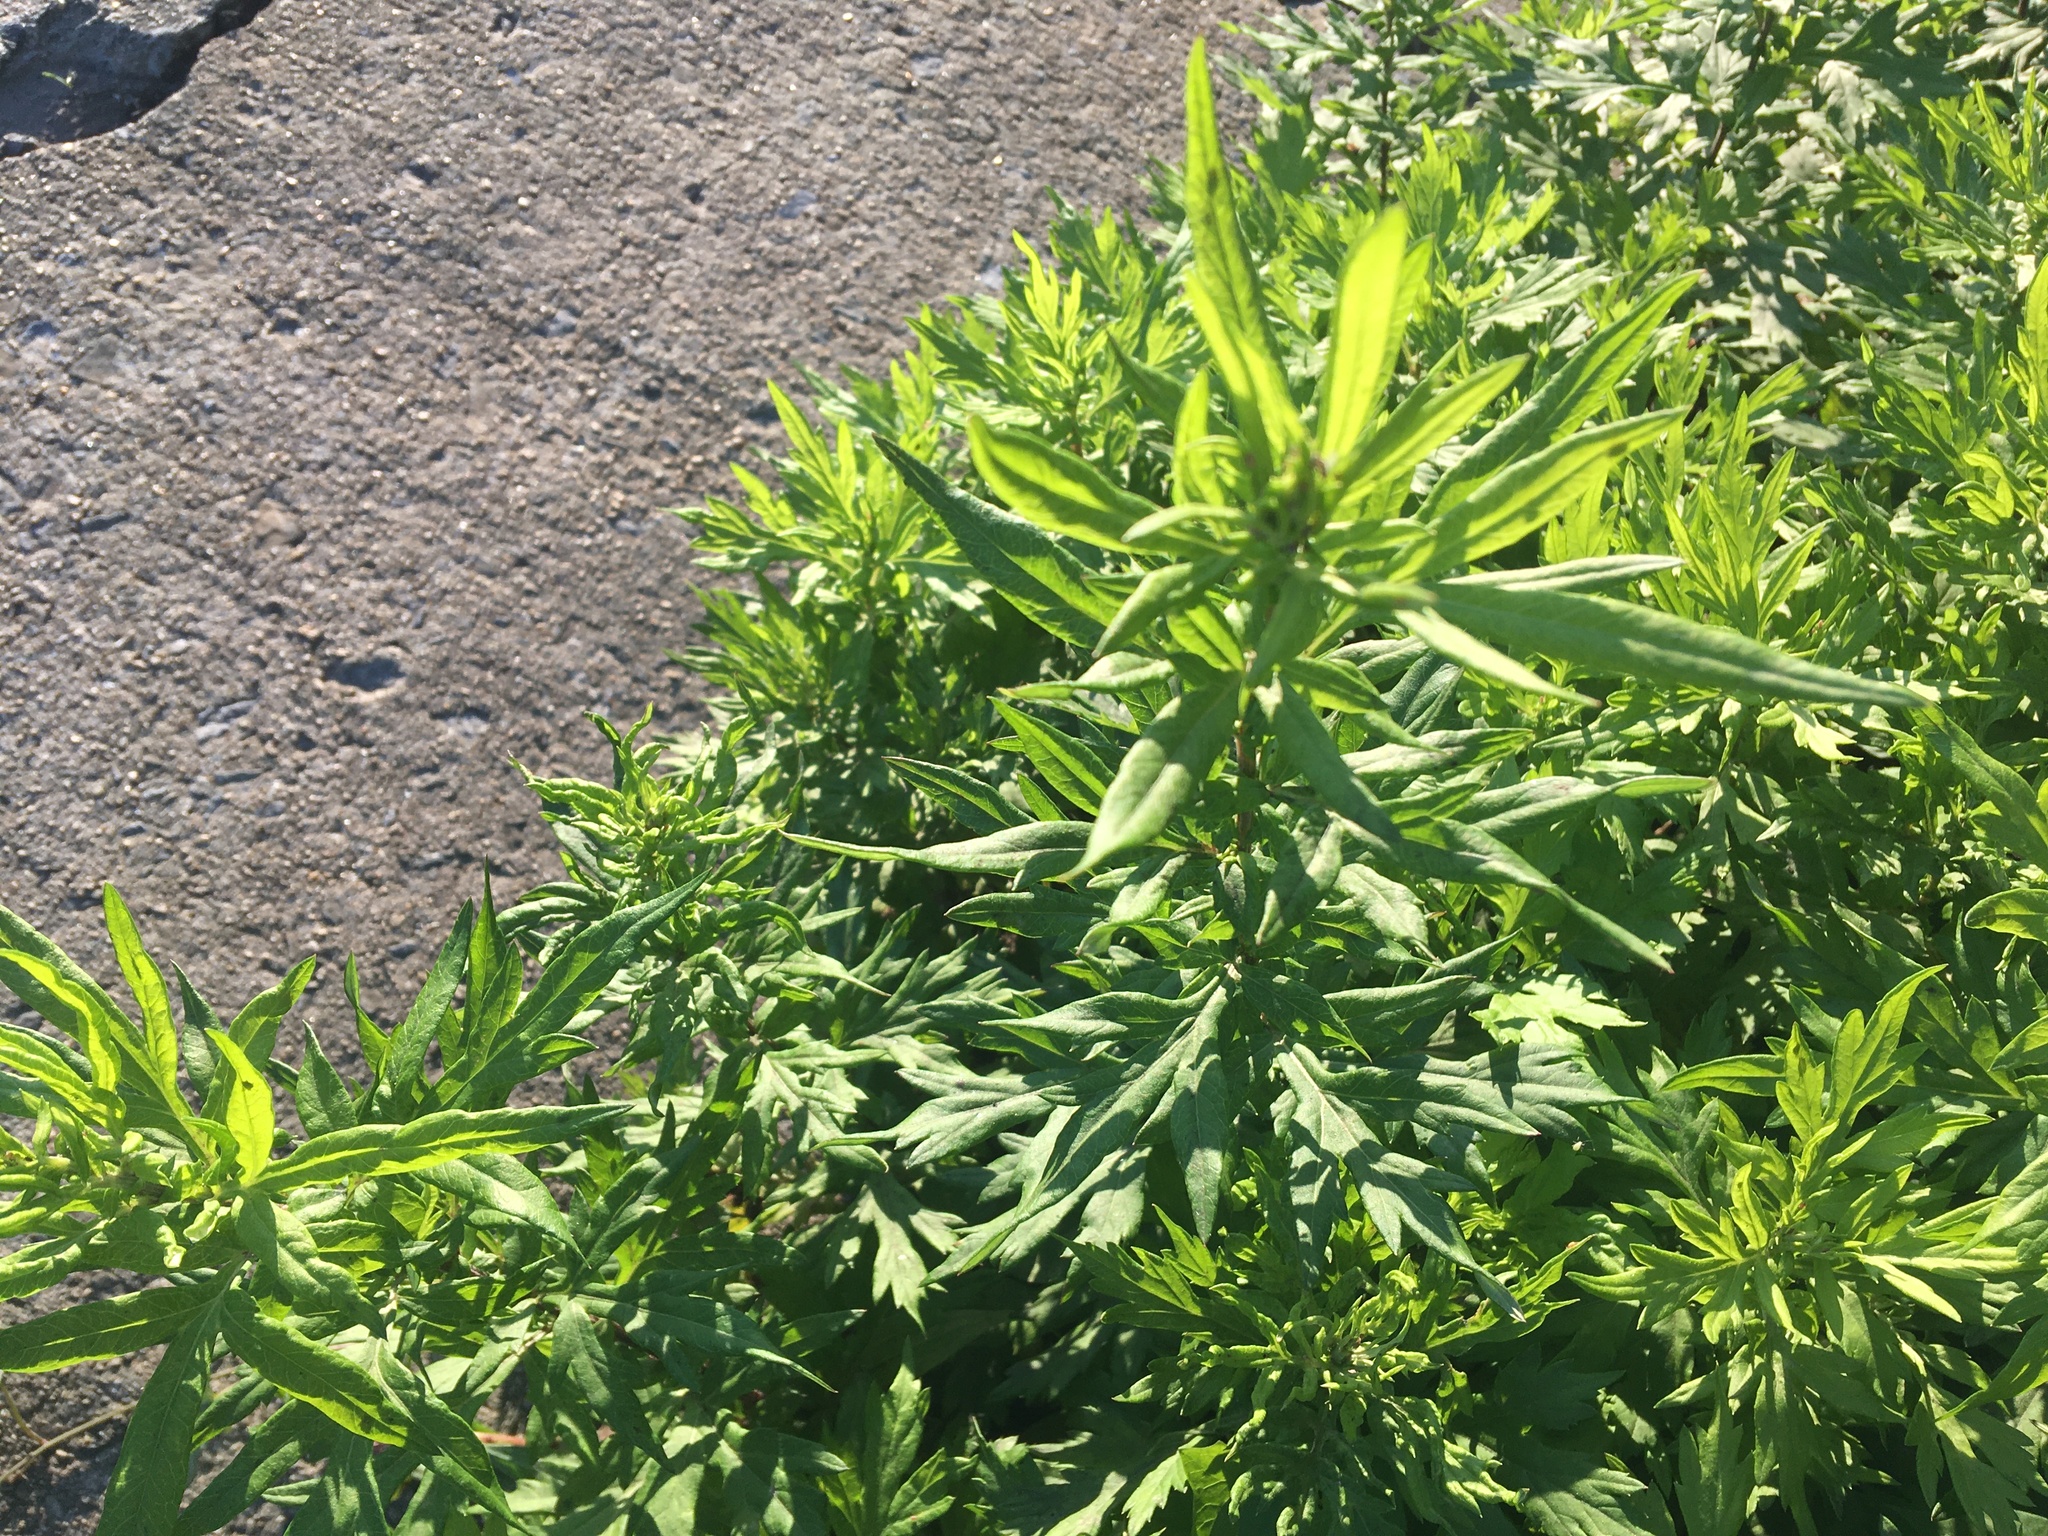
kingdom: Plantae
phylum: Tracheophyta
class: Magnoliopsida
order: Asterales
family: Asteraceae
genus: Artemisia
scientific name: Artemisia vulgaris
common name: Mugwort
